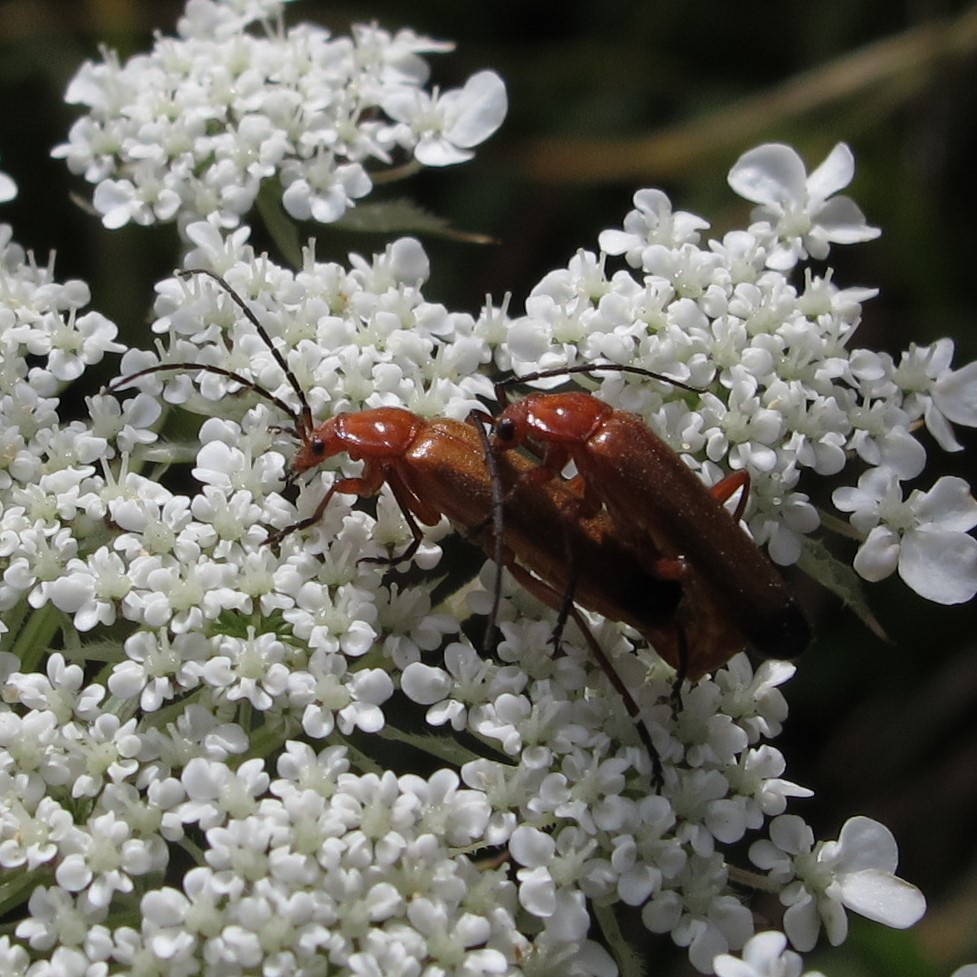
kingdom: Animalia
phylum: Arthropoda
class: Insecta
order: Coleoptera
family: Cantharidae
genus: Rhagonycha
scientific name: Rhagonycha fulva
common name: Common red soldier beetle
